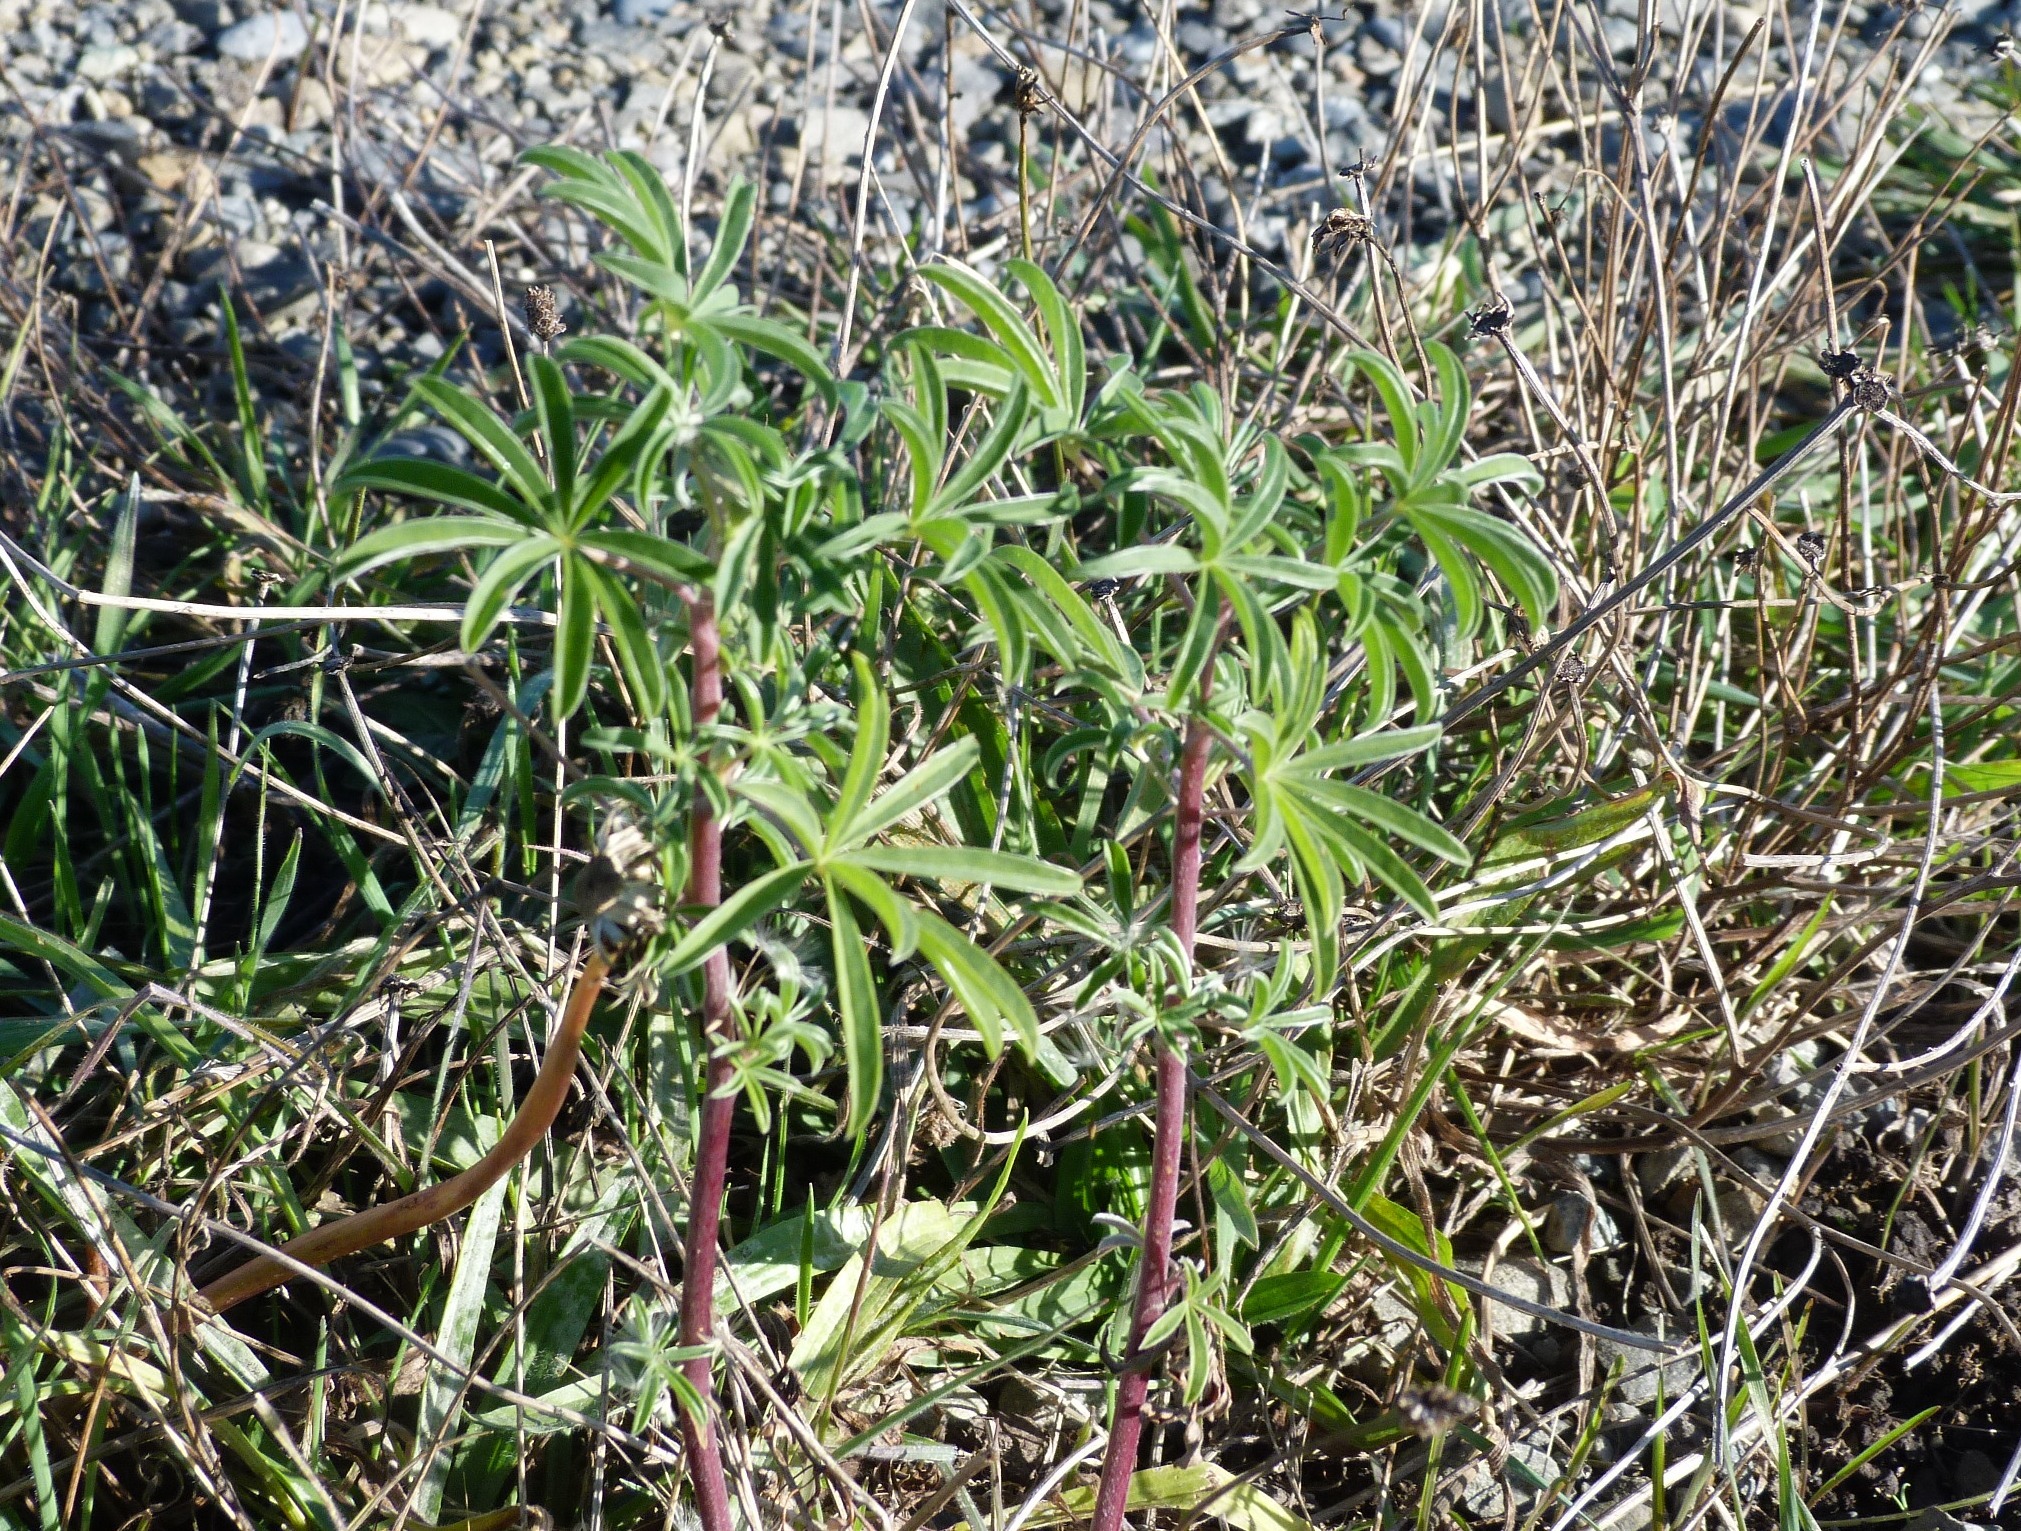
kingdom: Plantae
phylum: Tracheophyta
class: Magnoliopsida
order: Fabales
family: Fabaceae
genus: Lupinus
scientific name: Lupinus arboreus
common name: Yellow bush lupine
